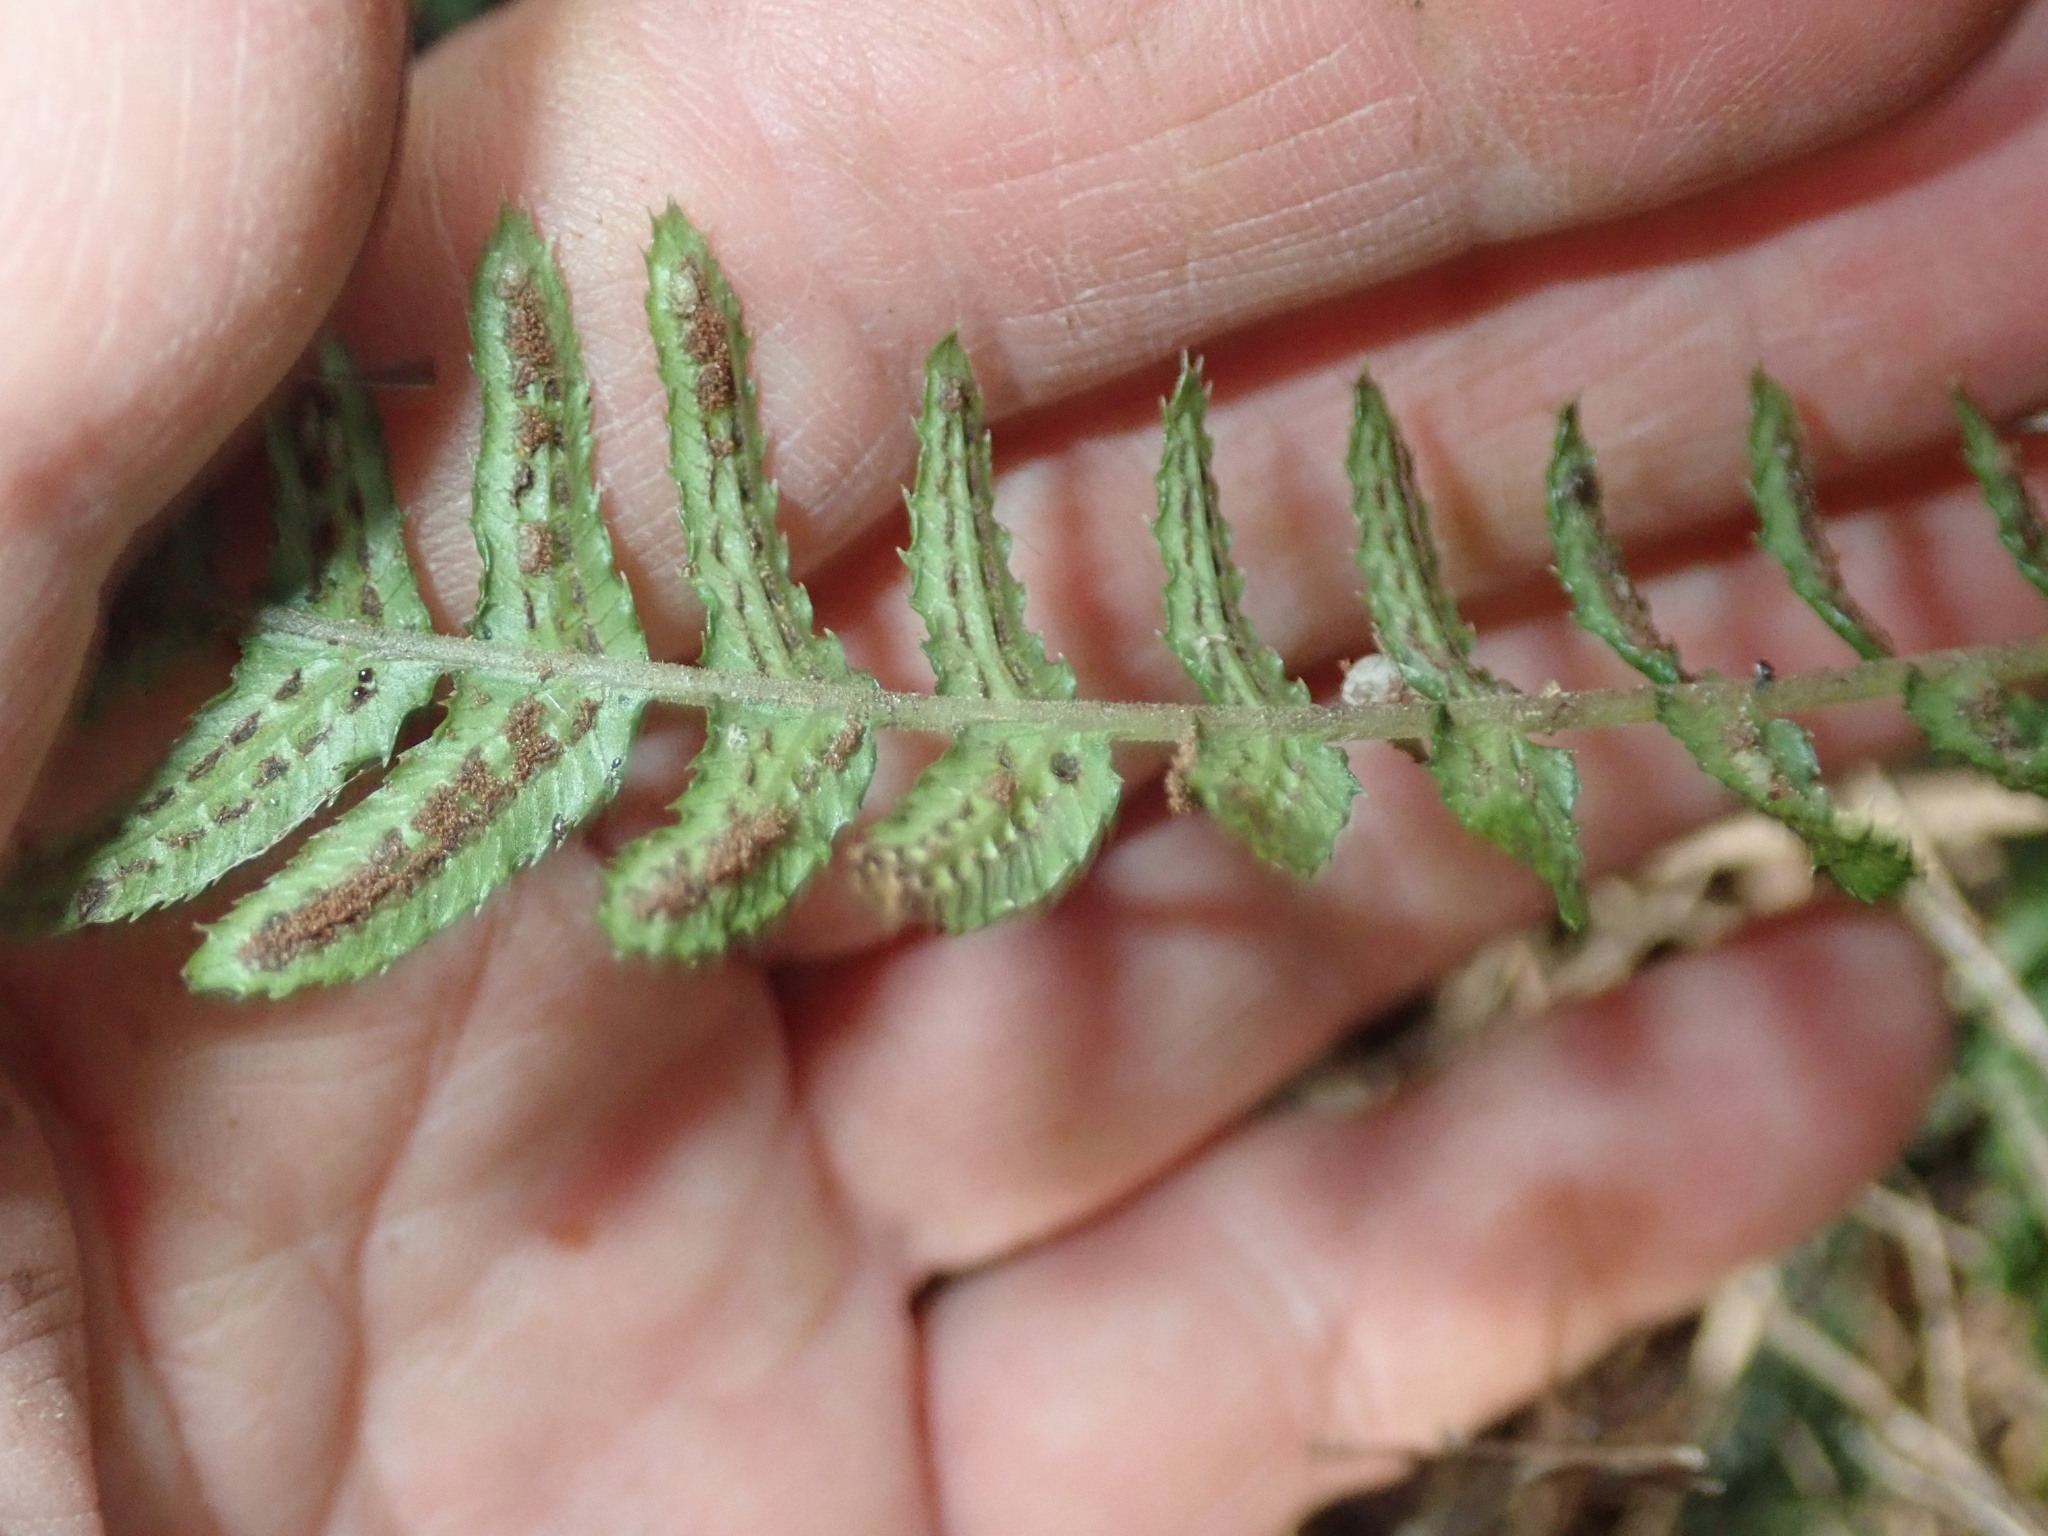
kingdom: Plantae
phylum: Tracheophyta
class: Polypodiopsida
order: Polypodiales
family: Blechnaceae
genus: Doodia
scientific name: Doodia australis
